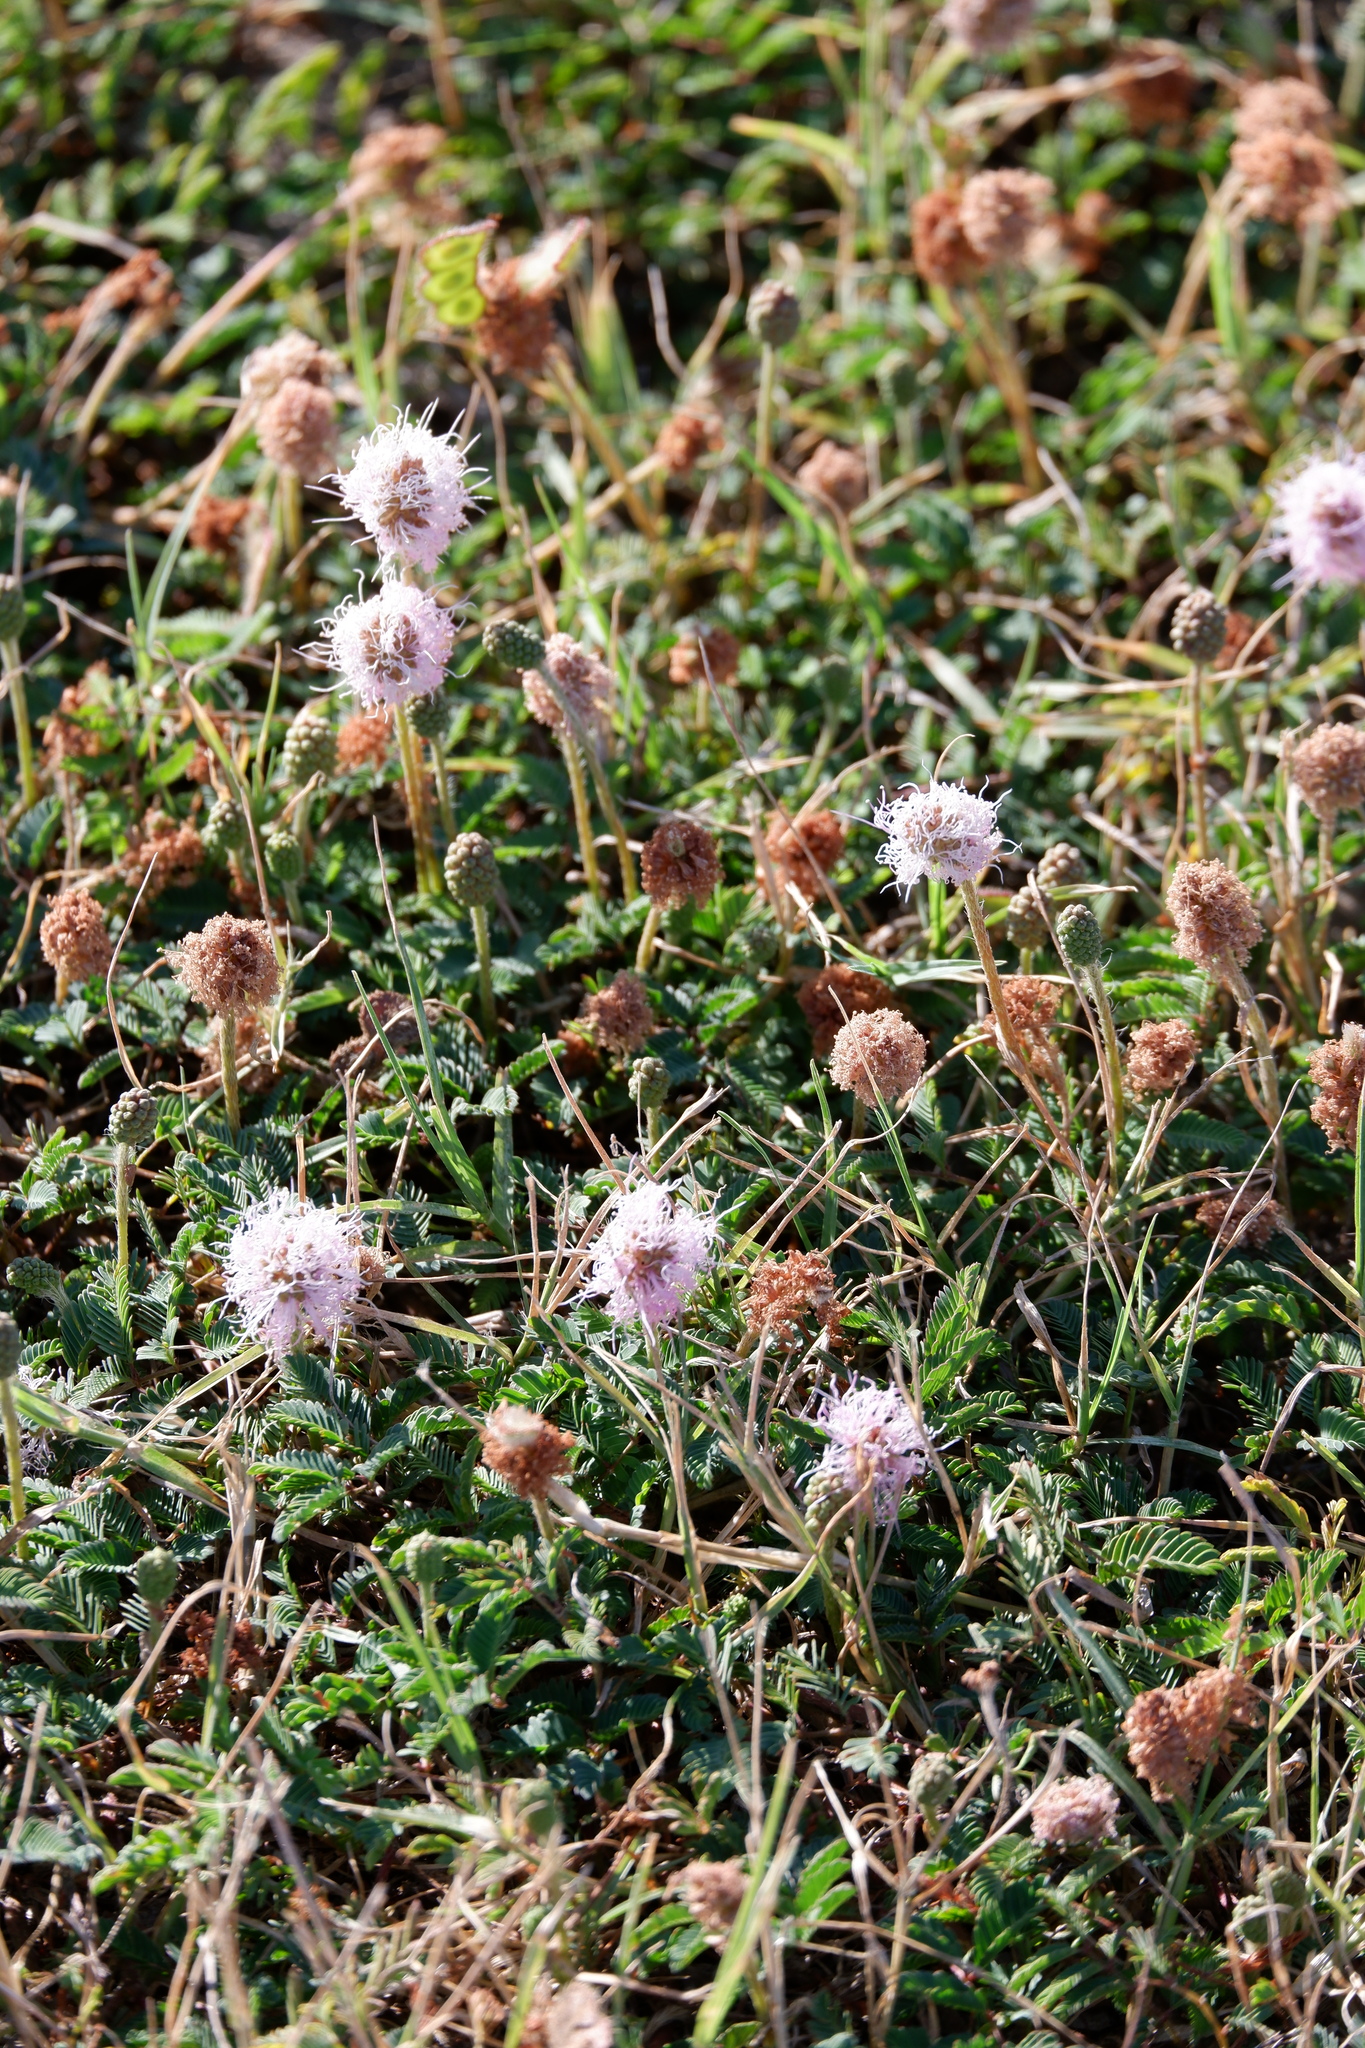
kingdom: Plantae
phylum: Tracheophyta
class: Magnoliopsida
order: Fabales
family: Fabaceae
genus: Mimosa
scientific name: Mimosa strigillosa
